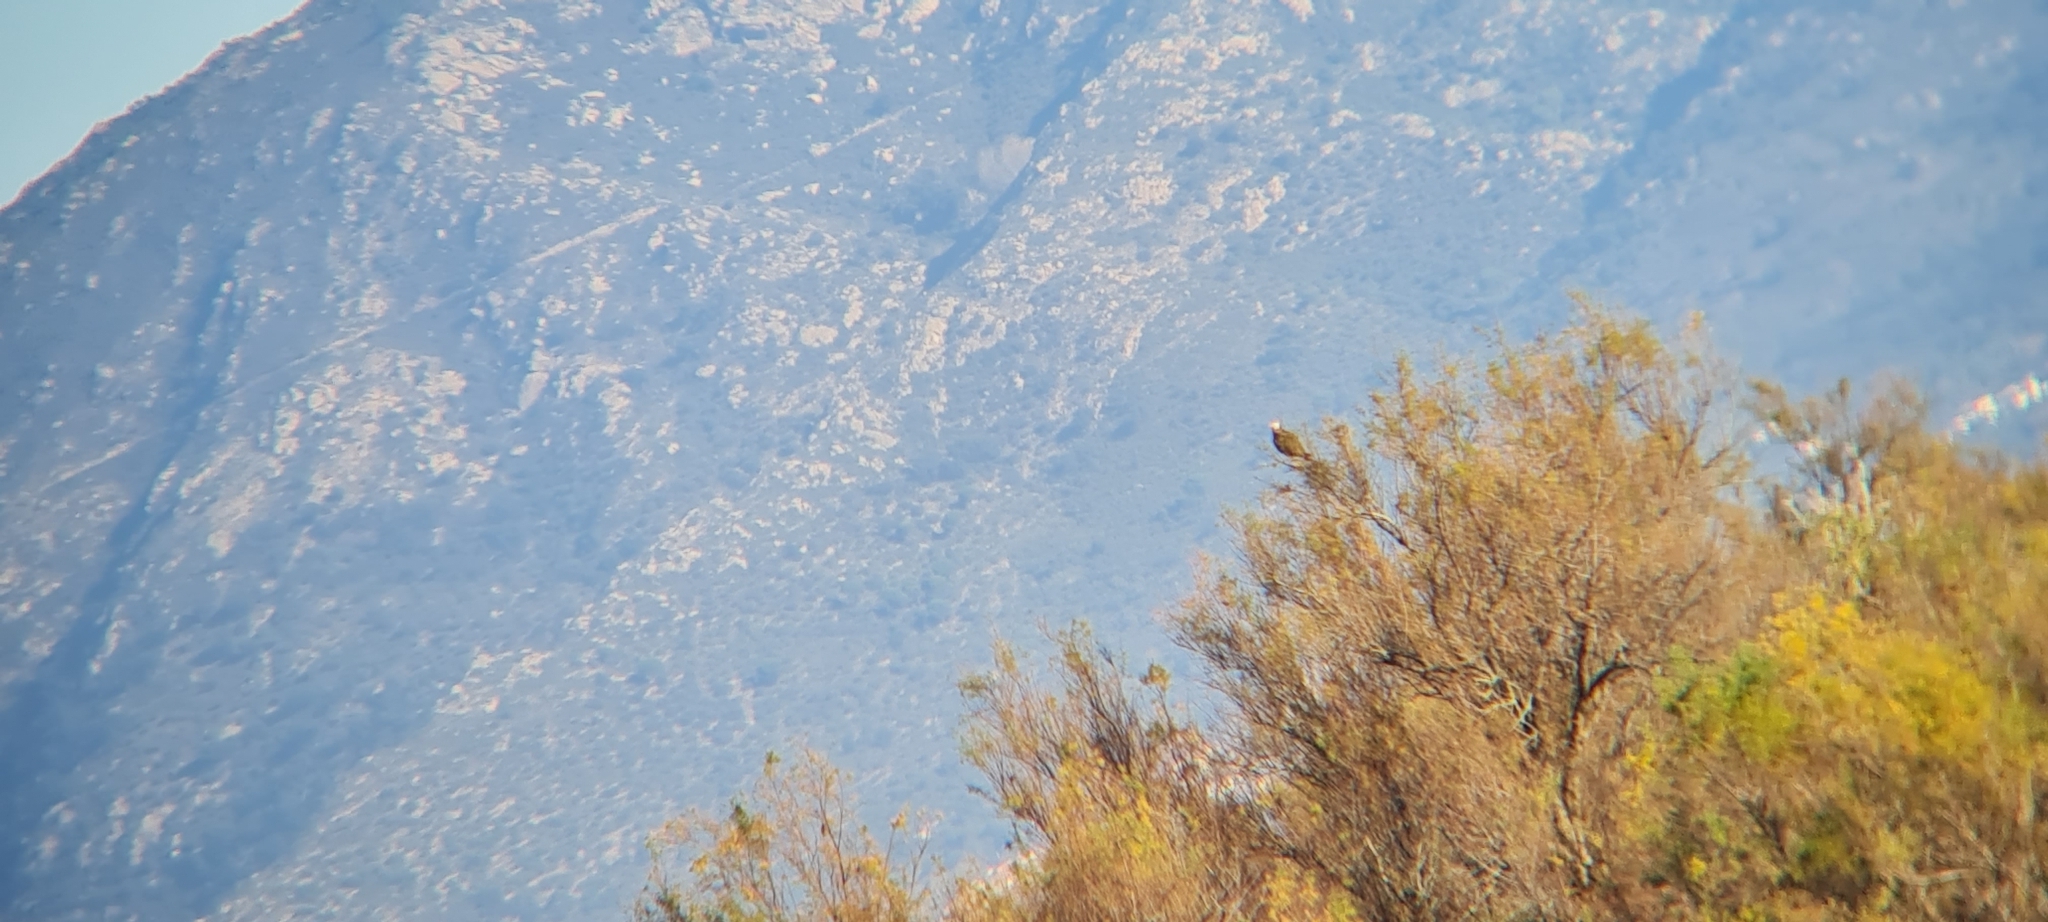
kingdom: Animalia
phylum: Chordata
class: Aves
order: Accipitriformes
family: Accipitridae
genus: Circus
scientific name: Circus aeruginosus
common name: Western marsh harrier
